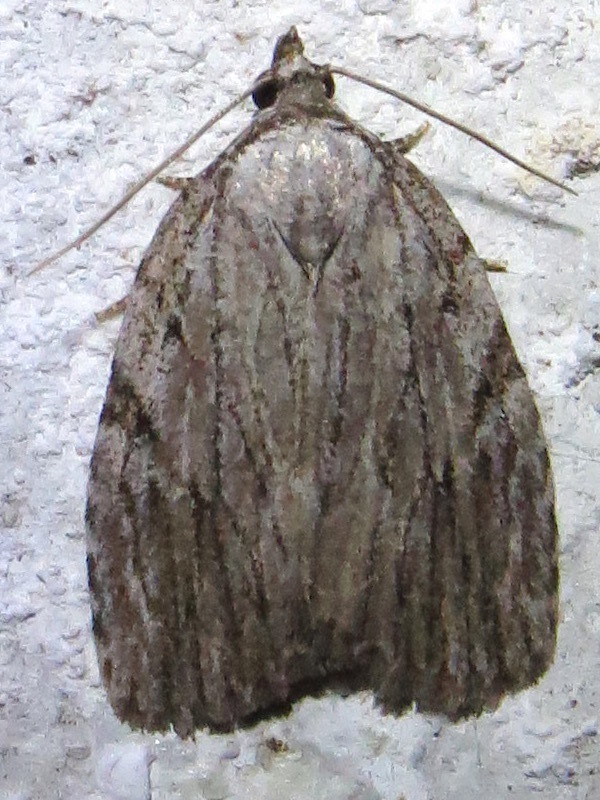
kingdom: Animalia
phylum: Arthropoda
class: Insecta
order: Lepidoptera
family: Noctuidae
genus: Balsa
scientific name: Balsa tristrigella
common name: Three-lined balsa moth
